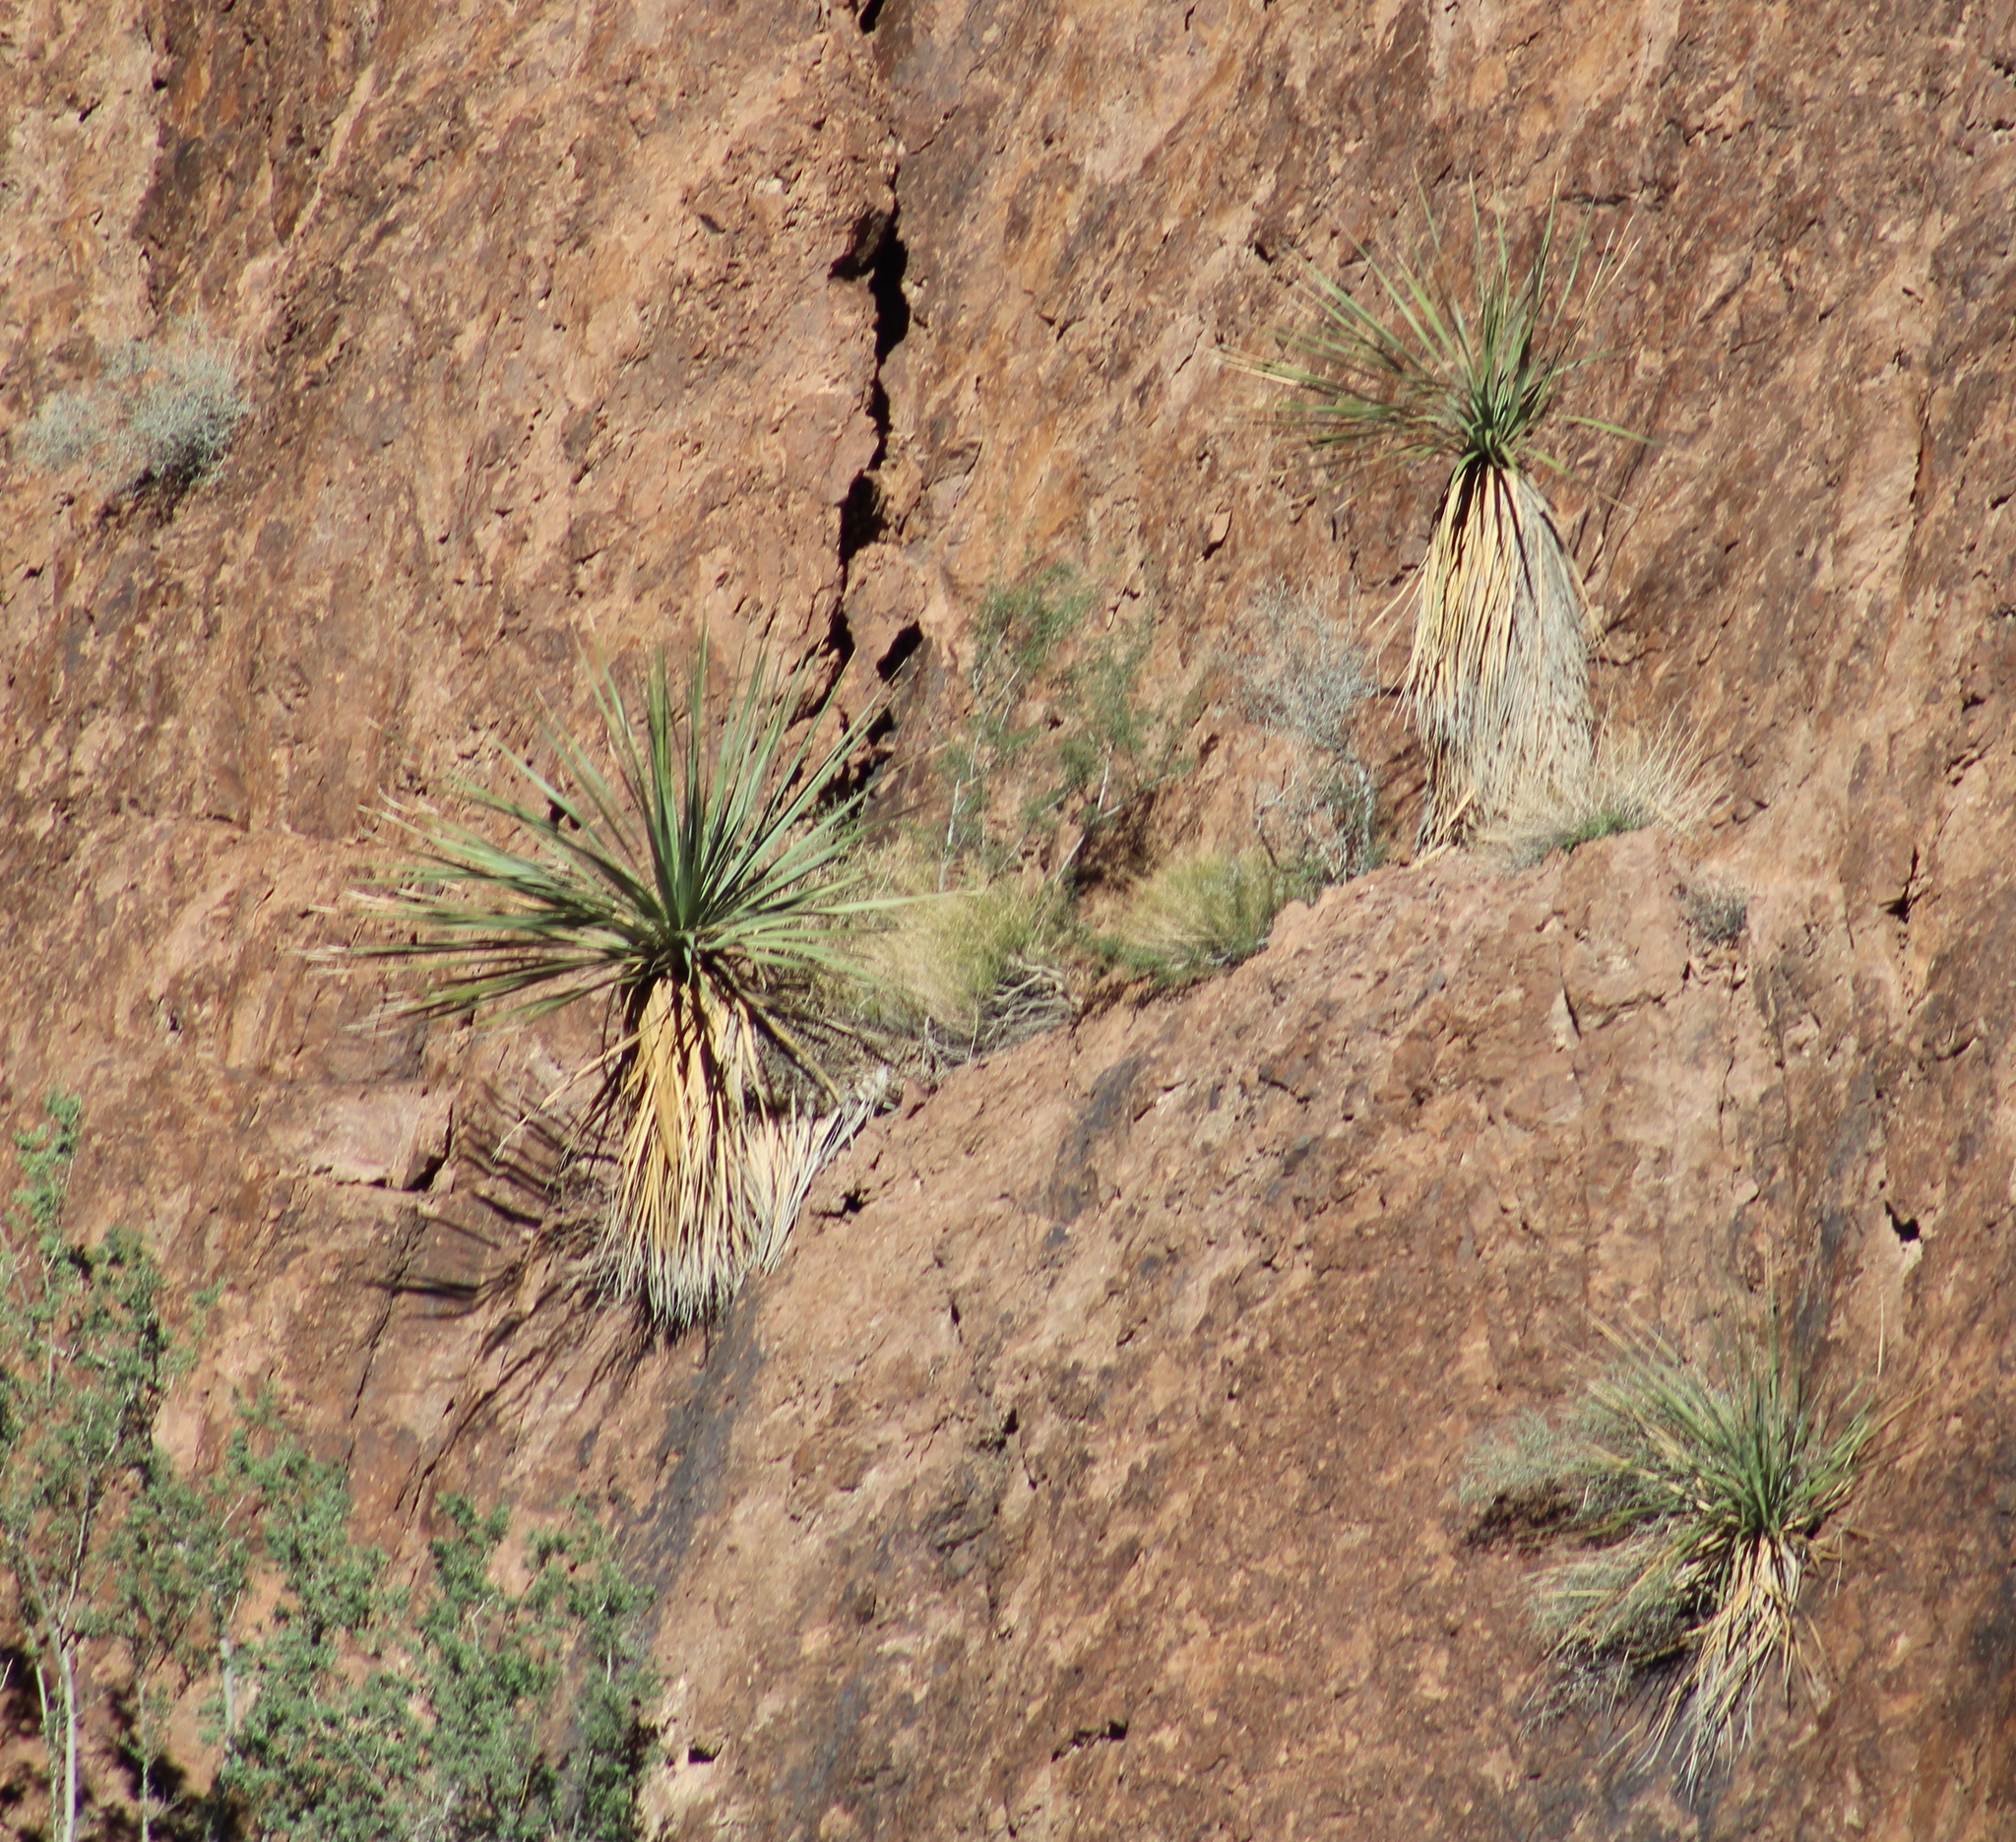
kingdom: Plantae
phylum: Tracheophyta
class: Liliopsida
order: Asparagales
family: Asparagaceae
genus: Nolina
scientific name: Nolina bigelovii
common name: Bigelow bear-grass
